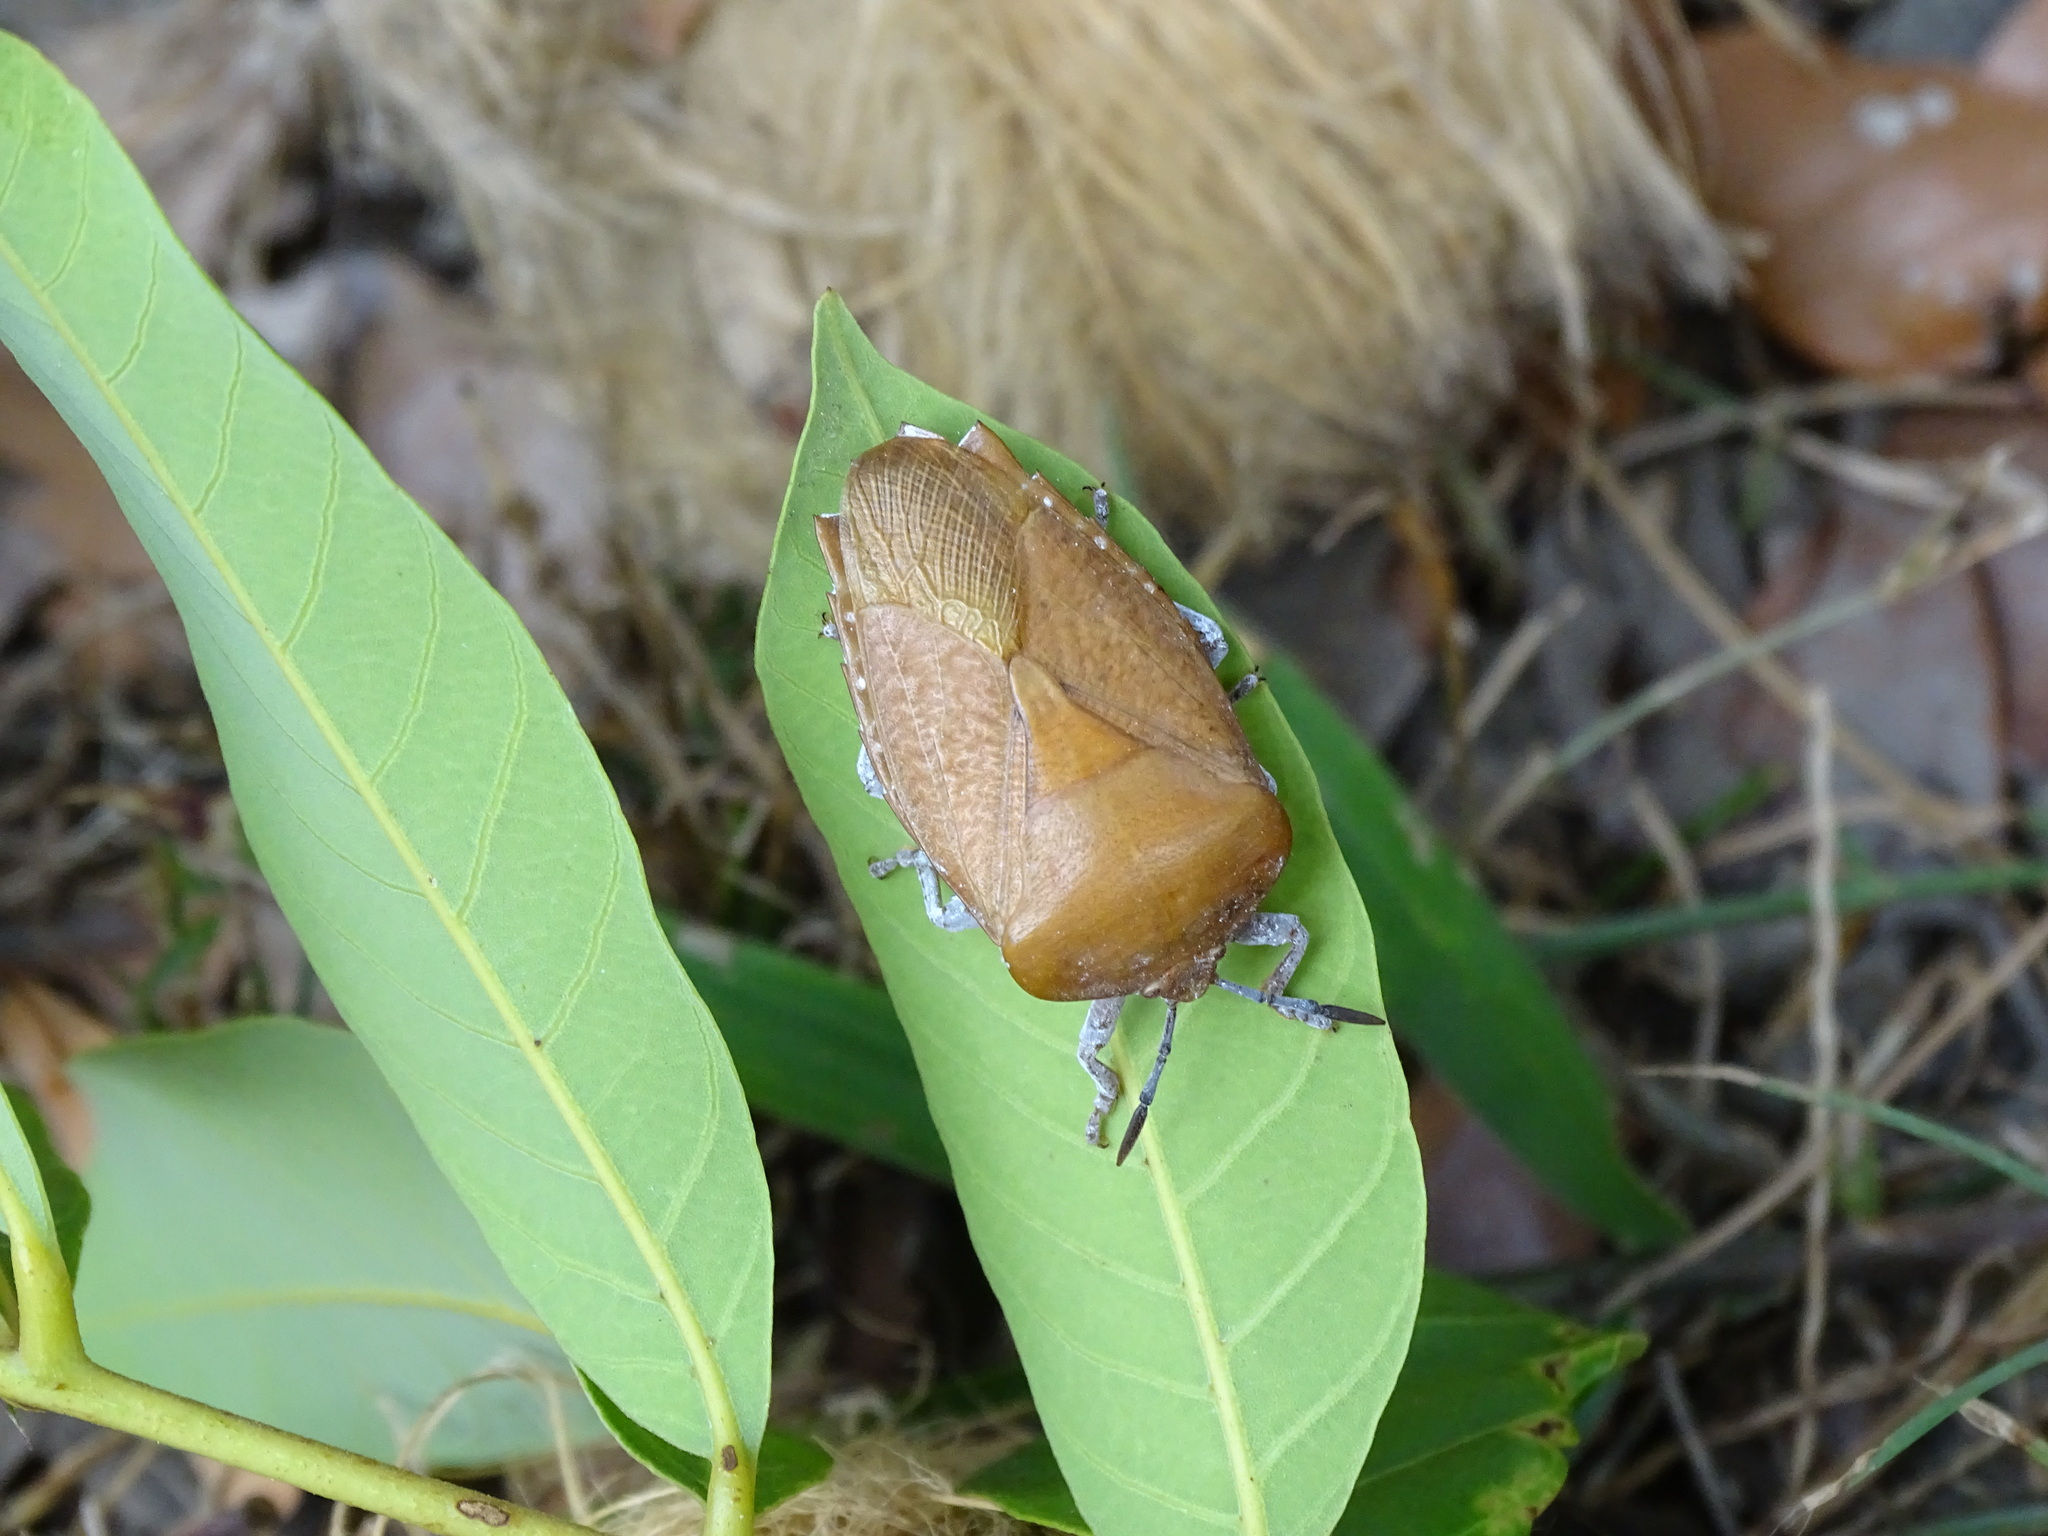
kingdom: Animalia
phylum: Arthropoda
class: Insecta
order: Hemiptera
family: Tessaratomidae
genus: Tessaratoma
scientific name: Tessaratoma papillosa
